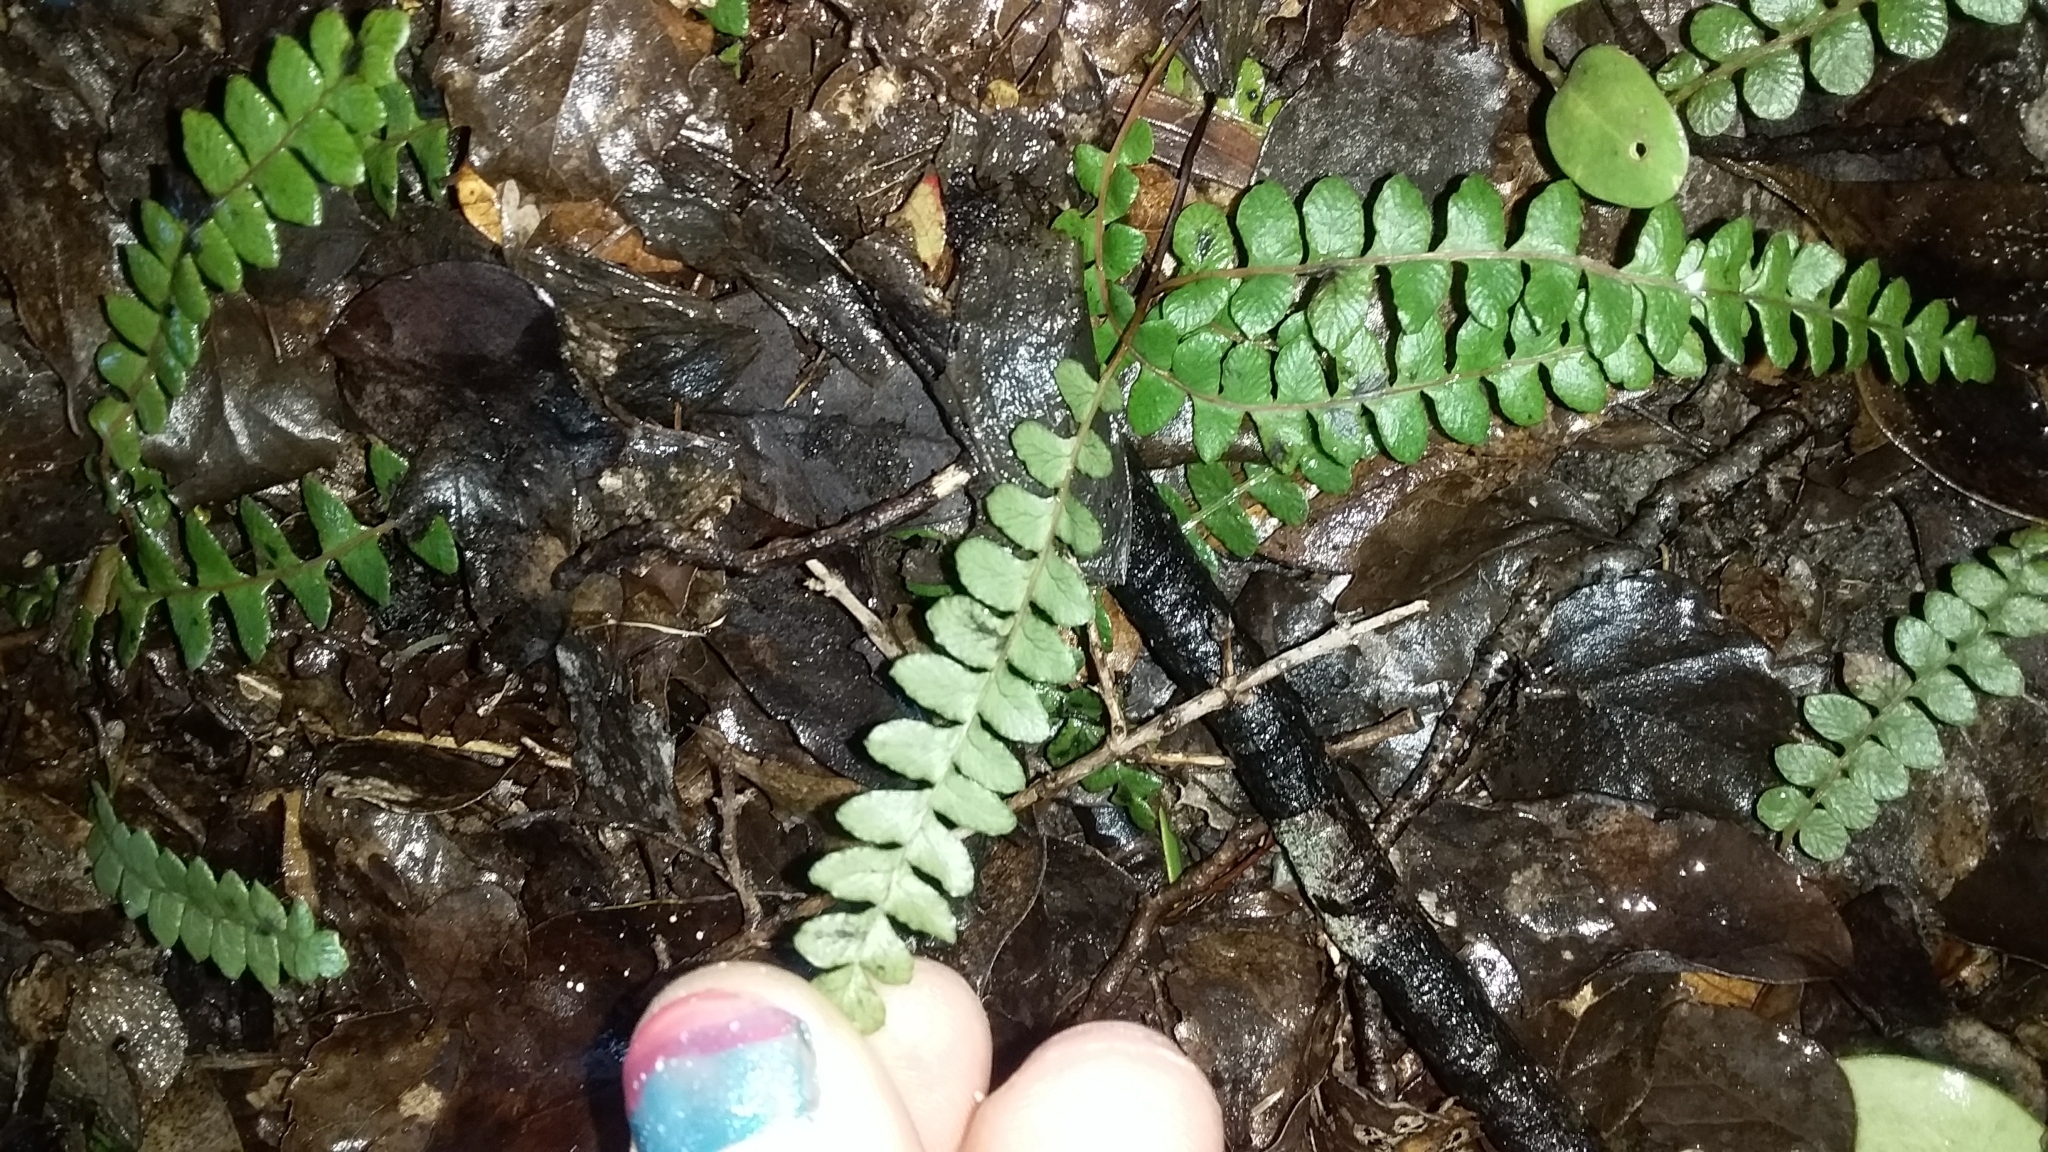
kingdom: Plantae
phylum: Tracheophyta
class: Polypodiopsida
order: Polypodiales
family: Blechnaceae
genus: Austroblechnum
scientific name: Austroblechnum penna-marina
